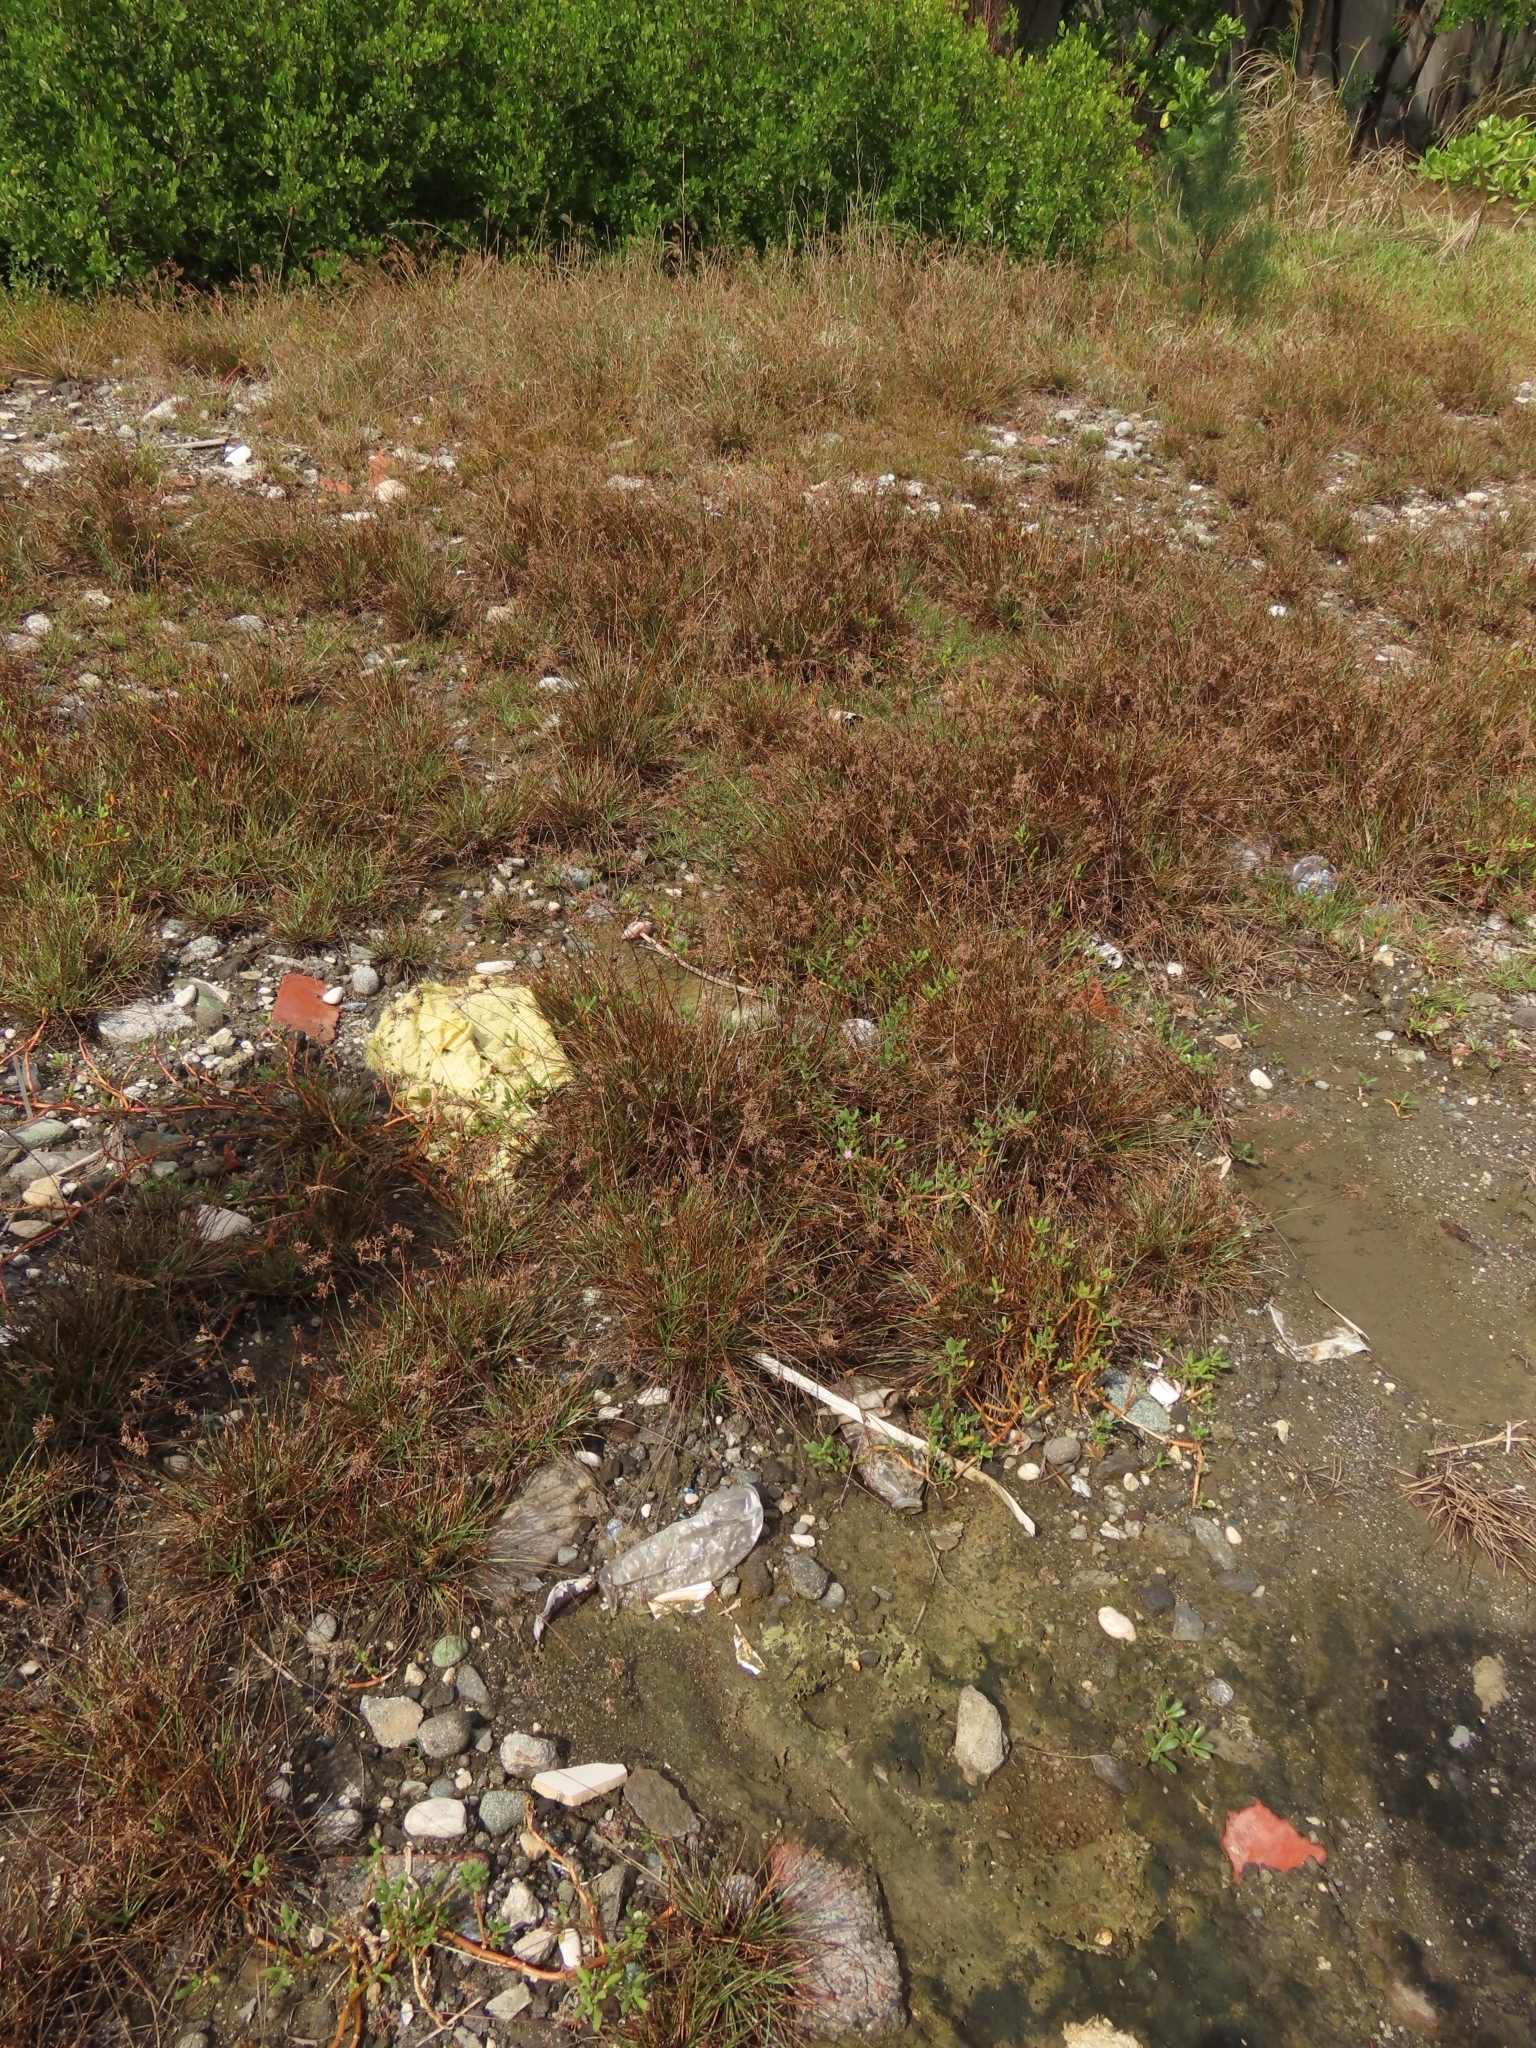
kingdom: Plantae
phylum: Tracheophyta
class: Magnoliopsida
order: Caryophyllales
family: Aizoaceae
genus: Sesuvium
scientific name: Sesuvium portulacastrum
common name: Sea-purslane
